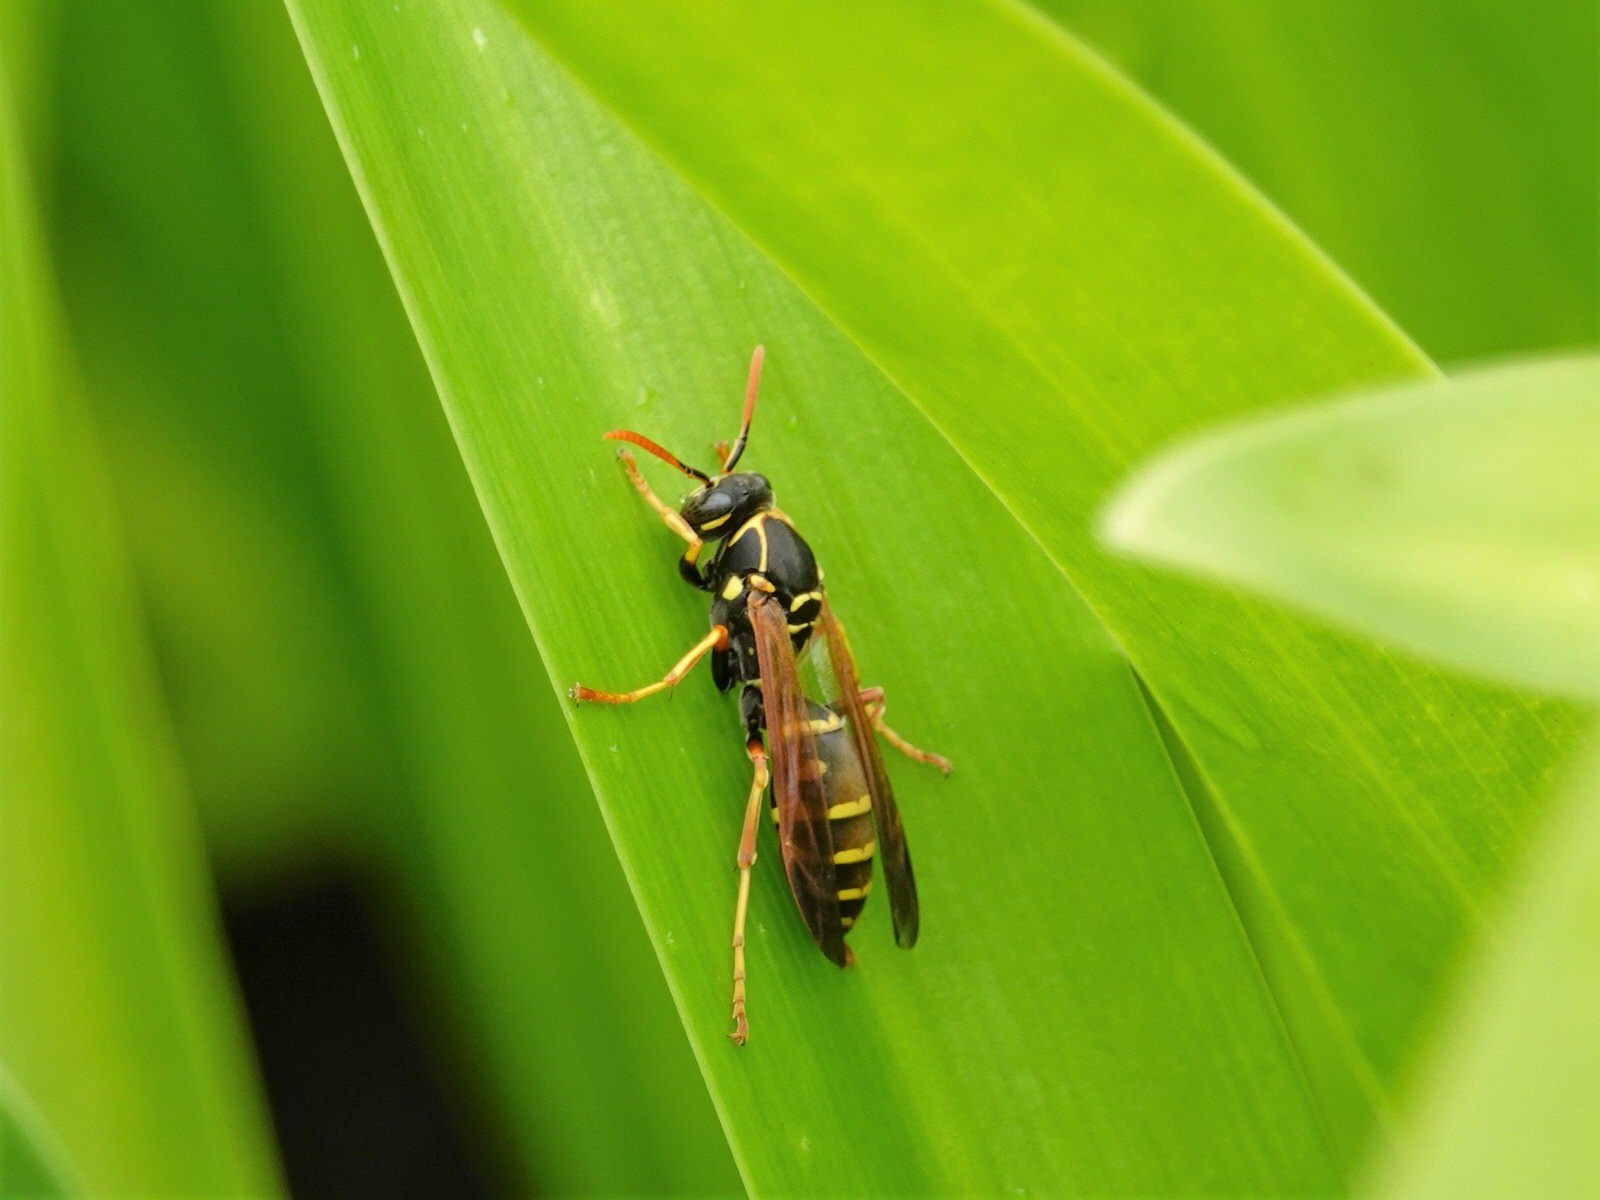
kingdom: Animalia
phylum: Arthropoda
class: Insecta
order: Hymenoptera
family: Eumenidae
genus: Polistes
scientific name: Polistes chinensis
